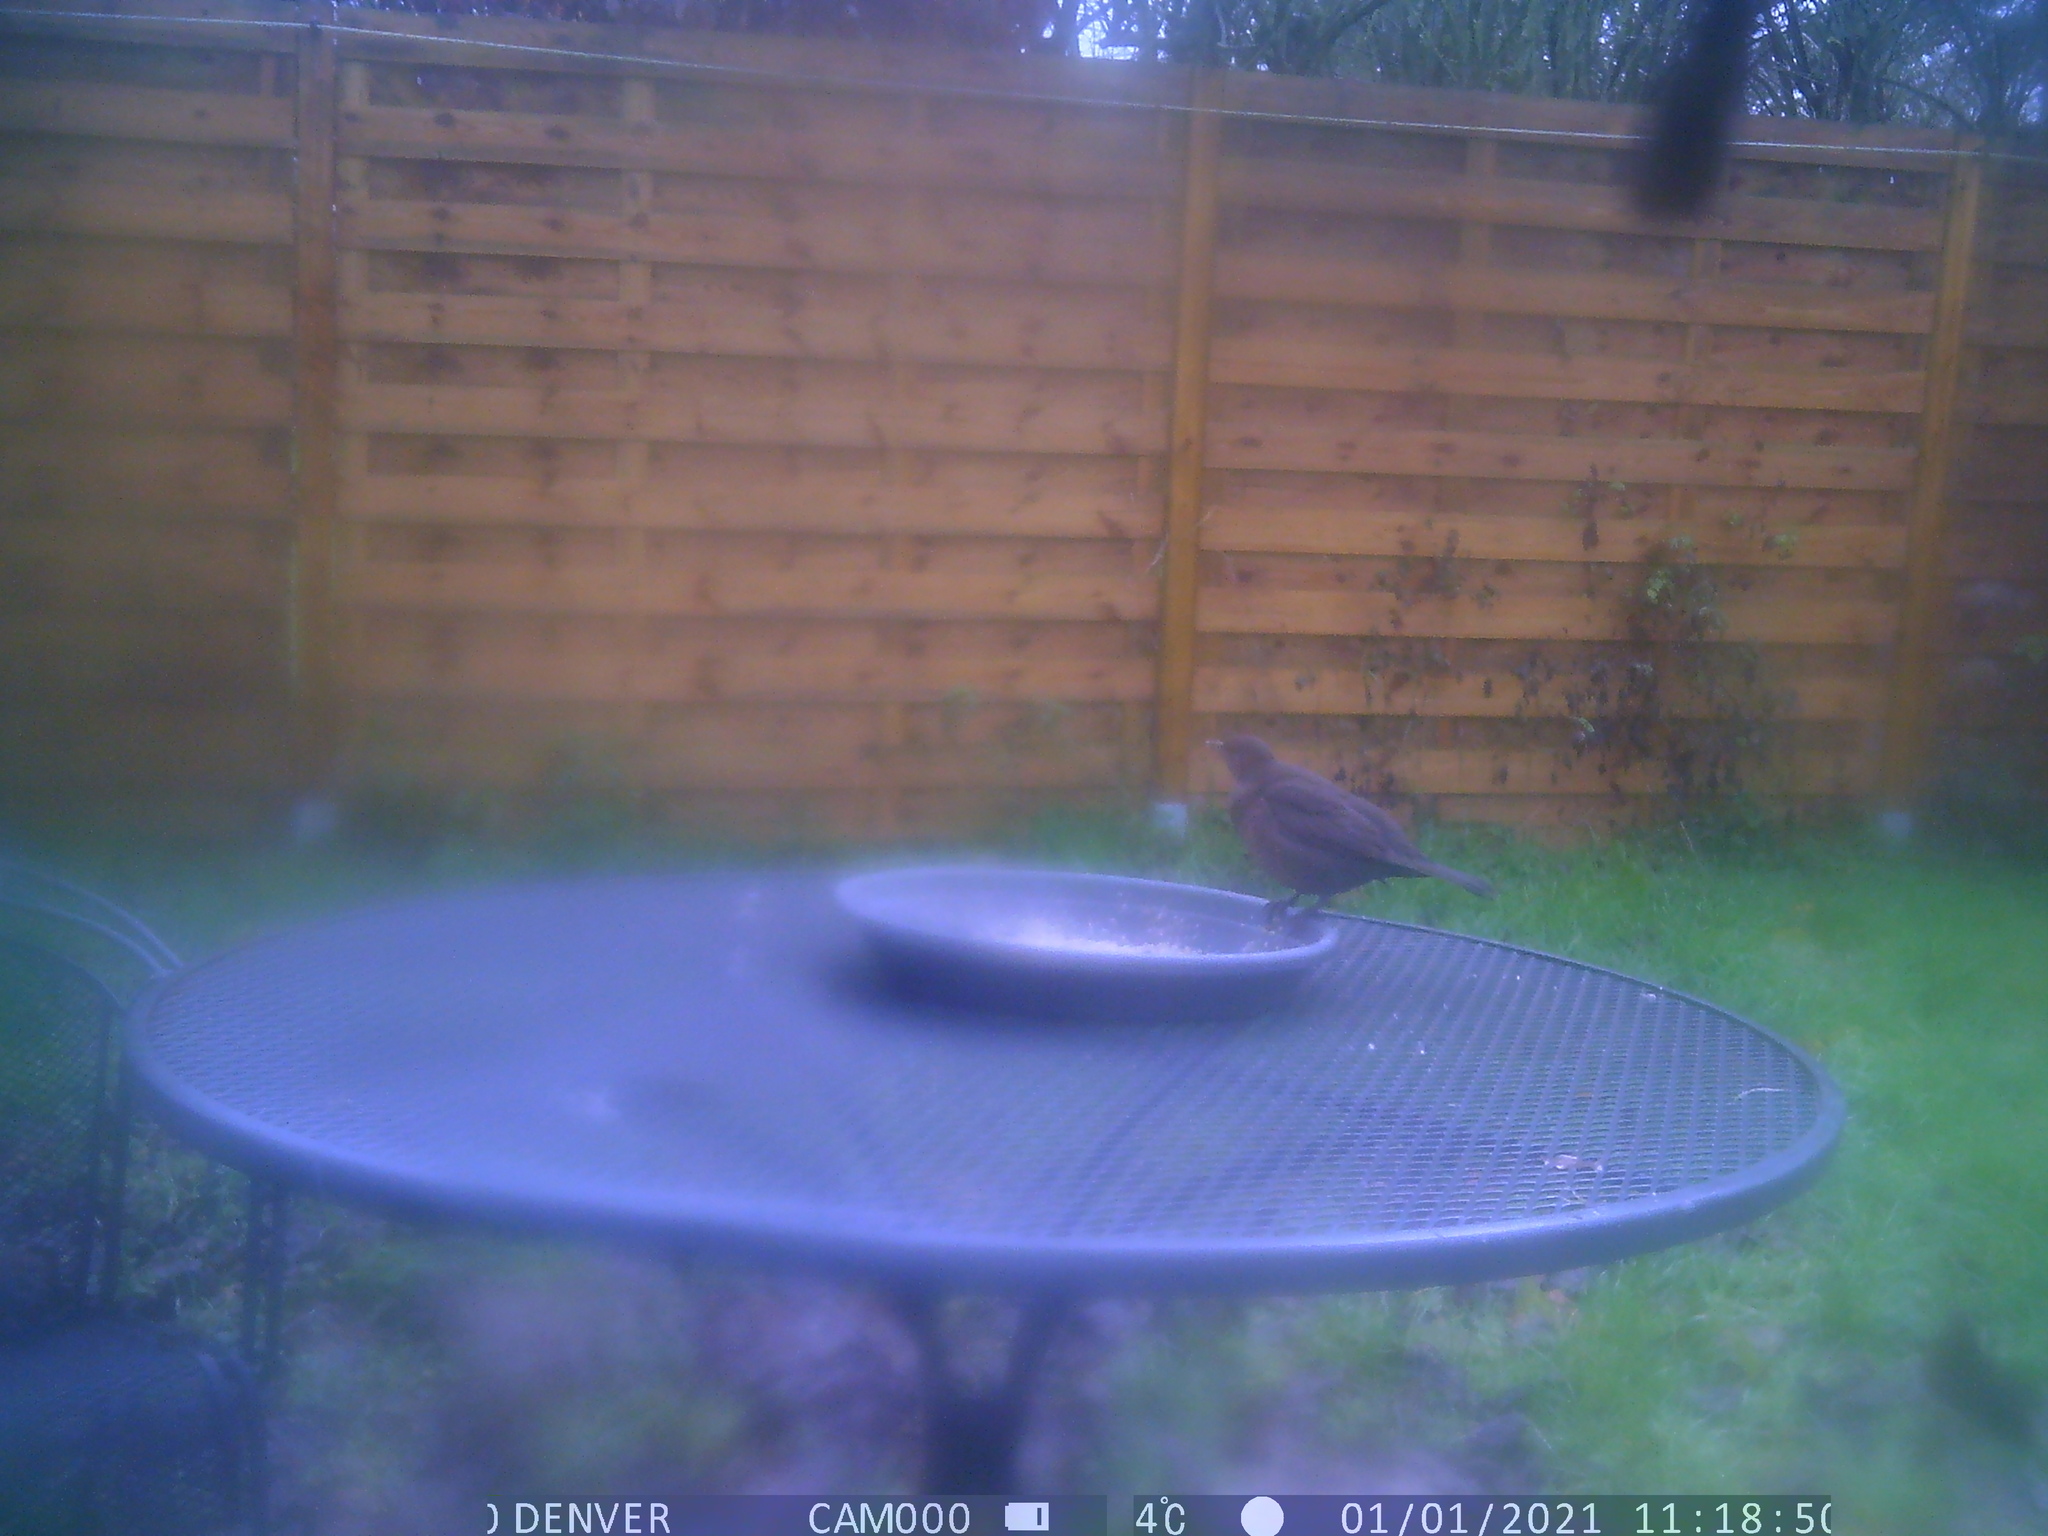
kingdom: Animalia
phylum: Chordata
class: Aves
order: Passeriformes
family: Turdidae
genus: Turdus
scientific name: Turdus merula
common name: Common blackbird
